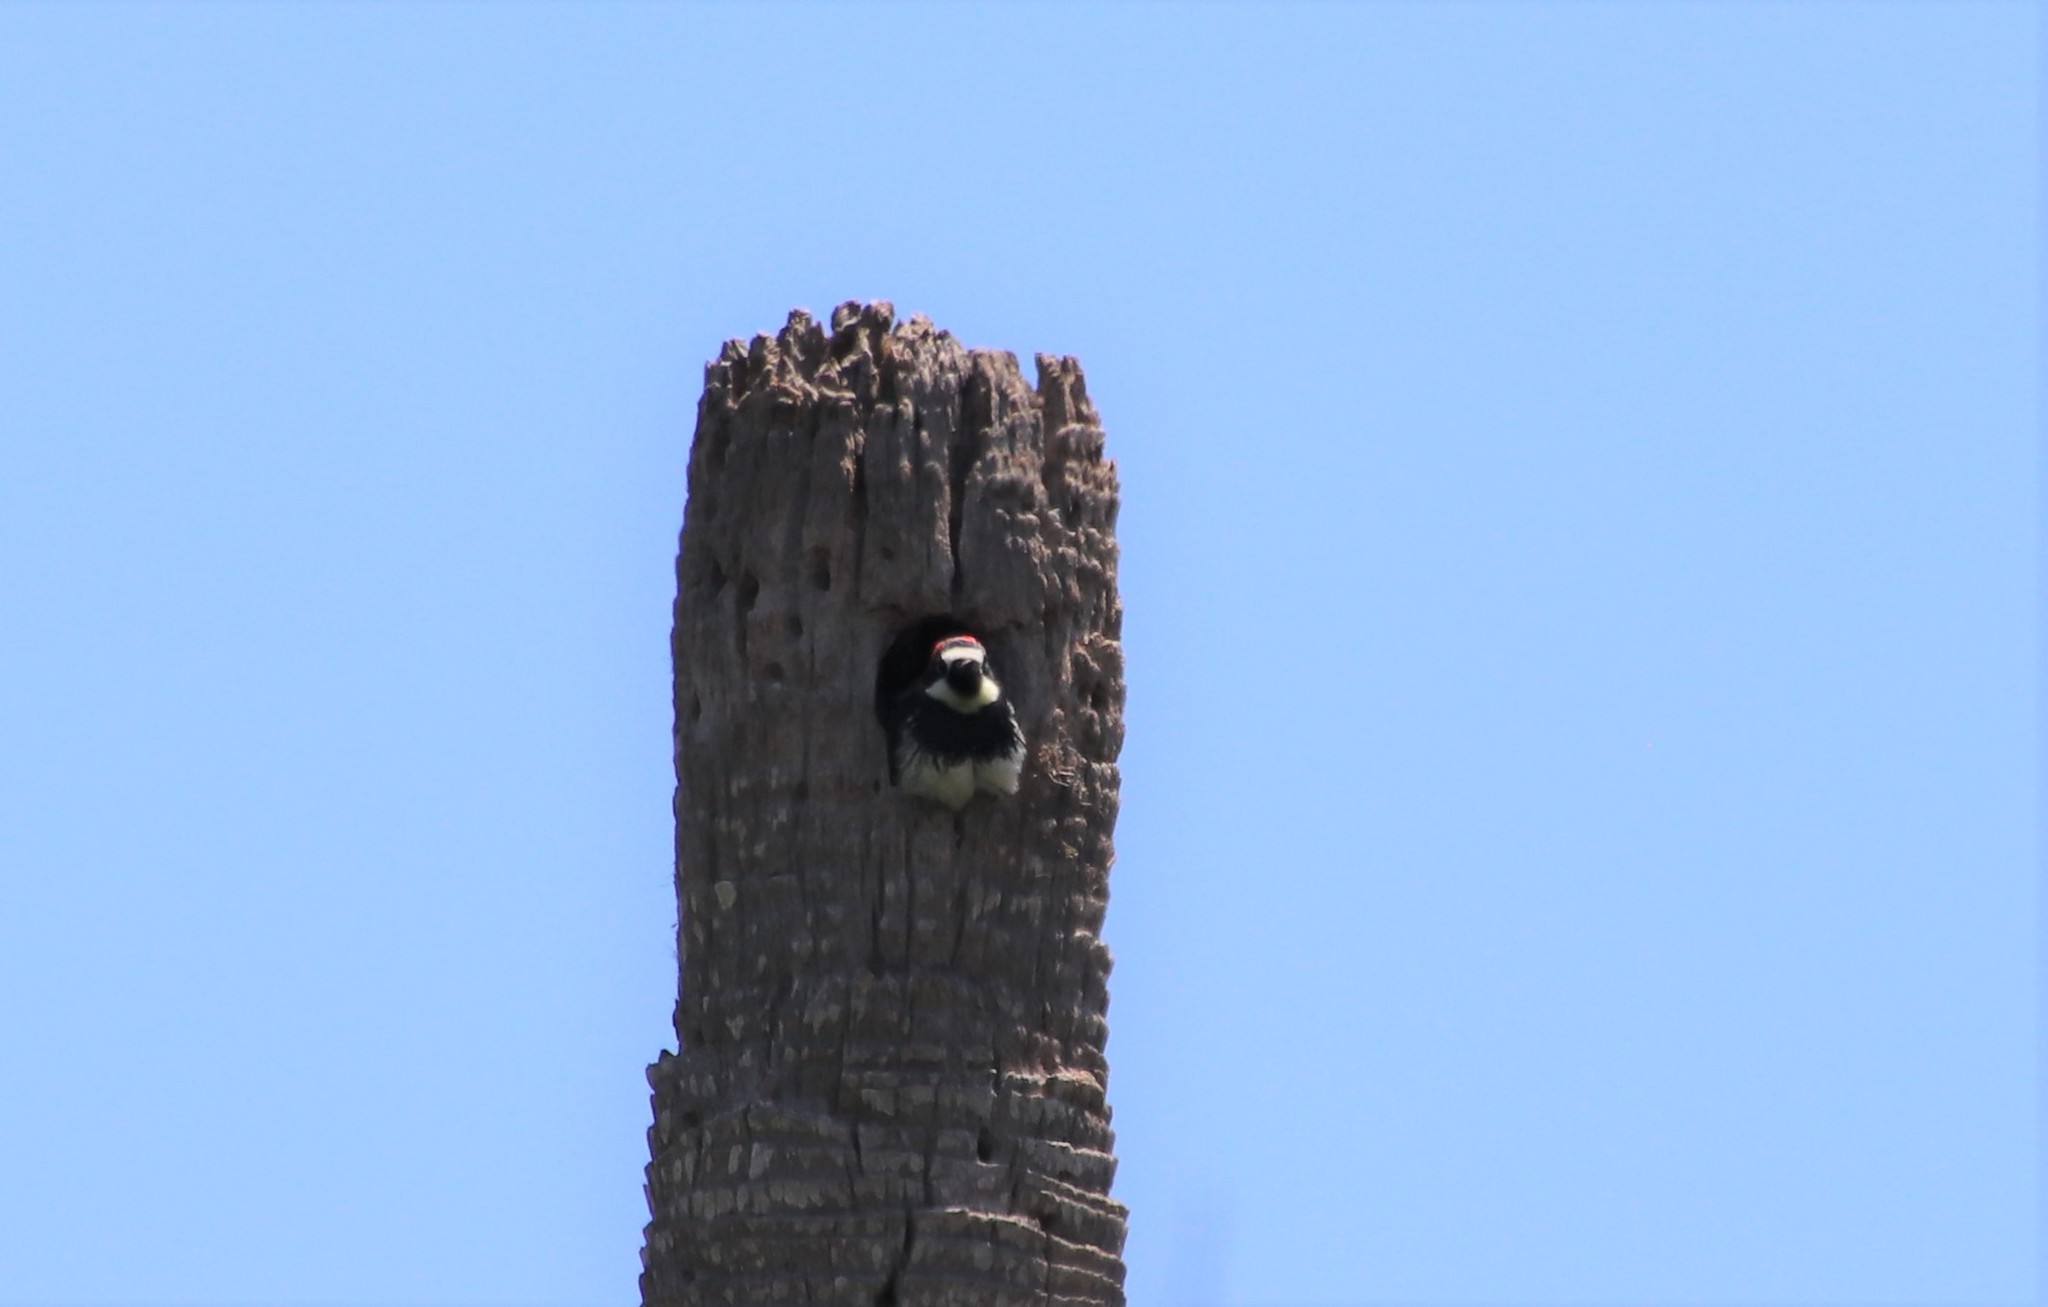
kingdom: Animalia
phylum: Chordata
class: Aves
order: Piciformes
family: Picidae
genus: Melanerpes
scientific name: Melanerpes formicivorus
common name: Acorn woodpecker
